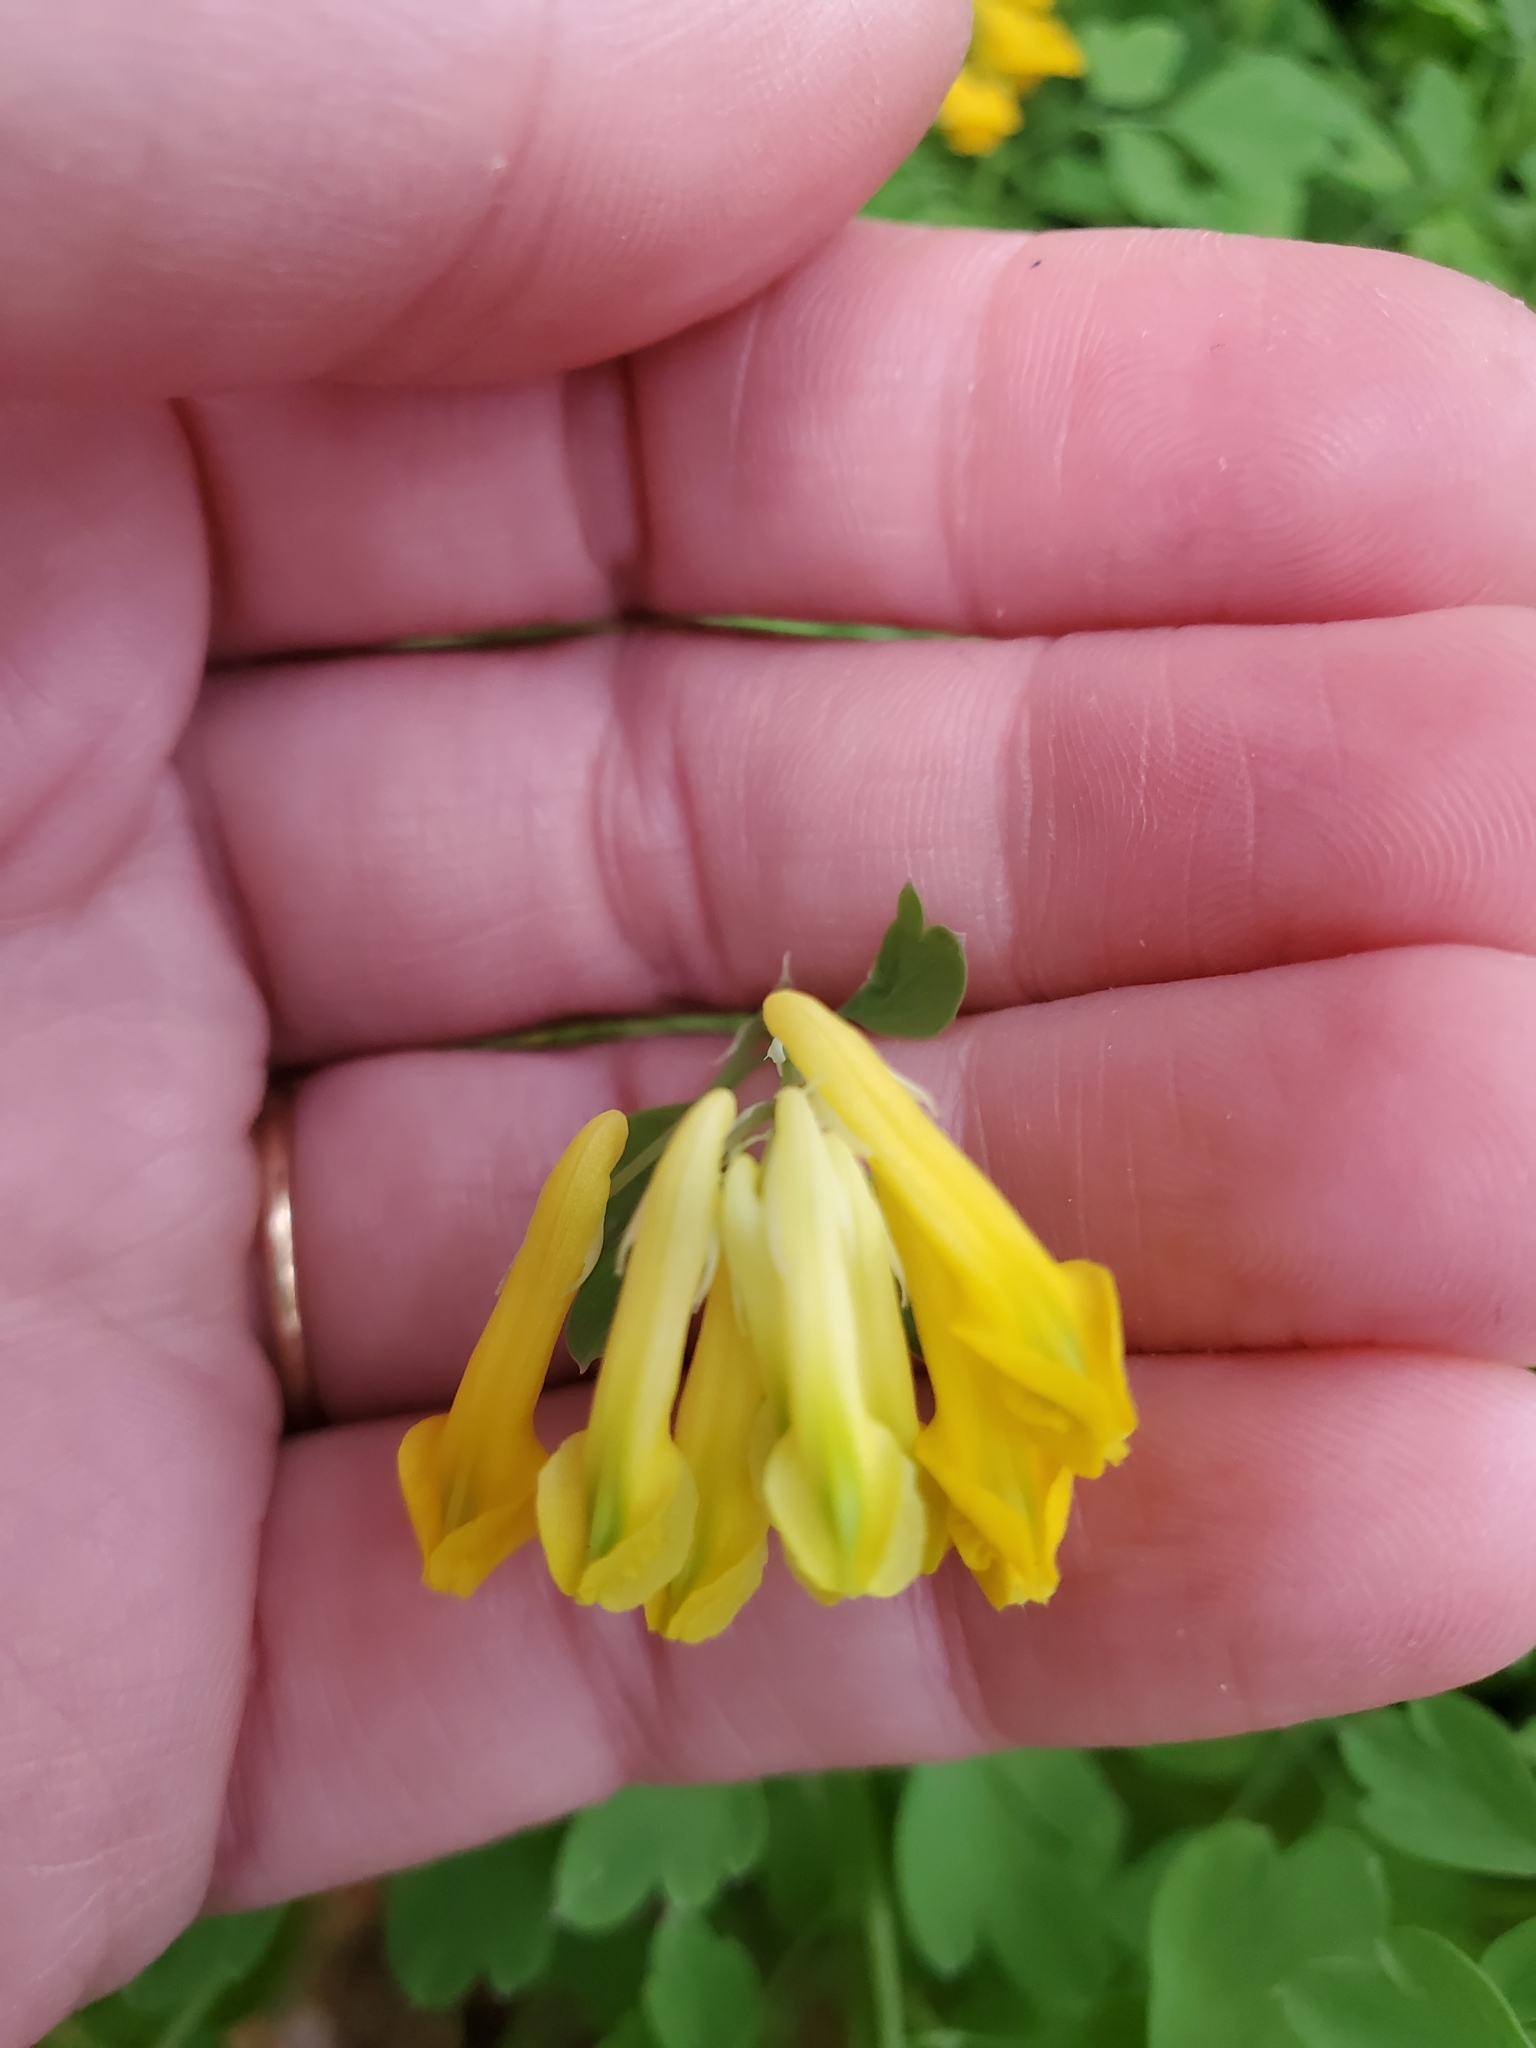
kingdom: Plantae
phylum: Tracheophyta
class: Magnoliopsida
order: Ranunculales
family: Papaveraceae
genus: Pseudofumaria
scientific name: Pseudofumaria lutea
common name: Yellow corydalis
